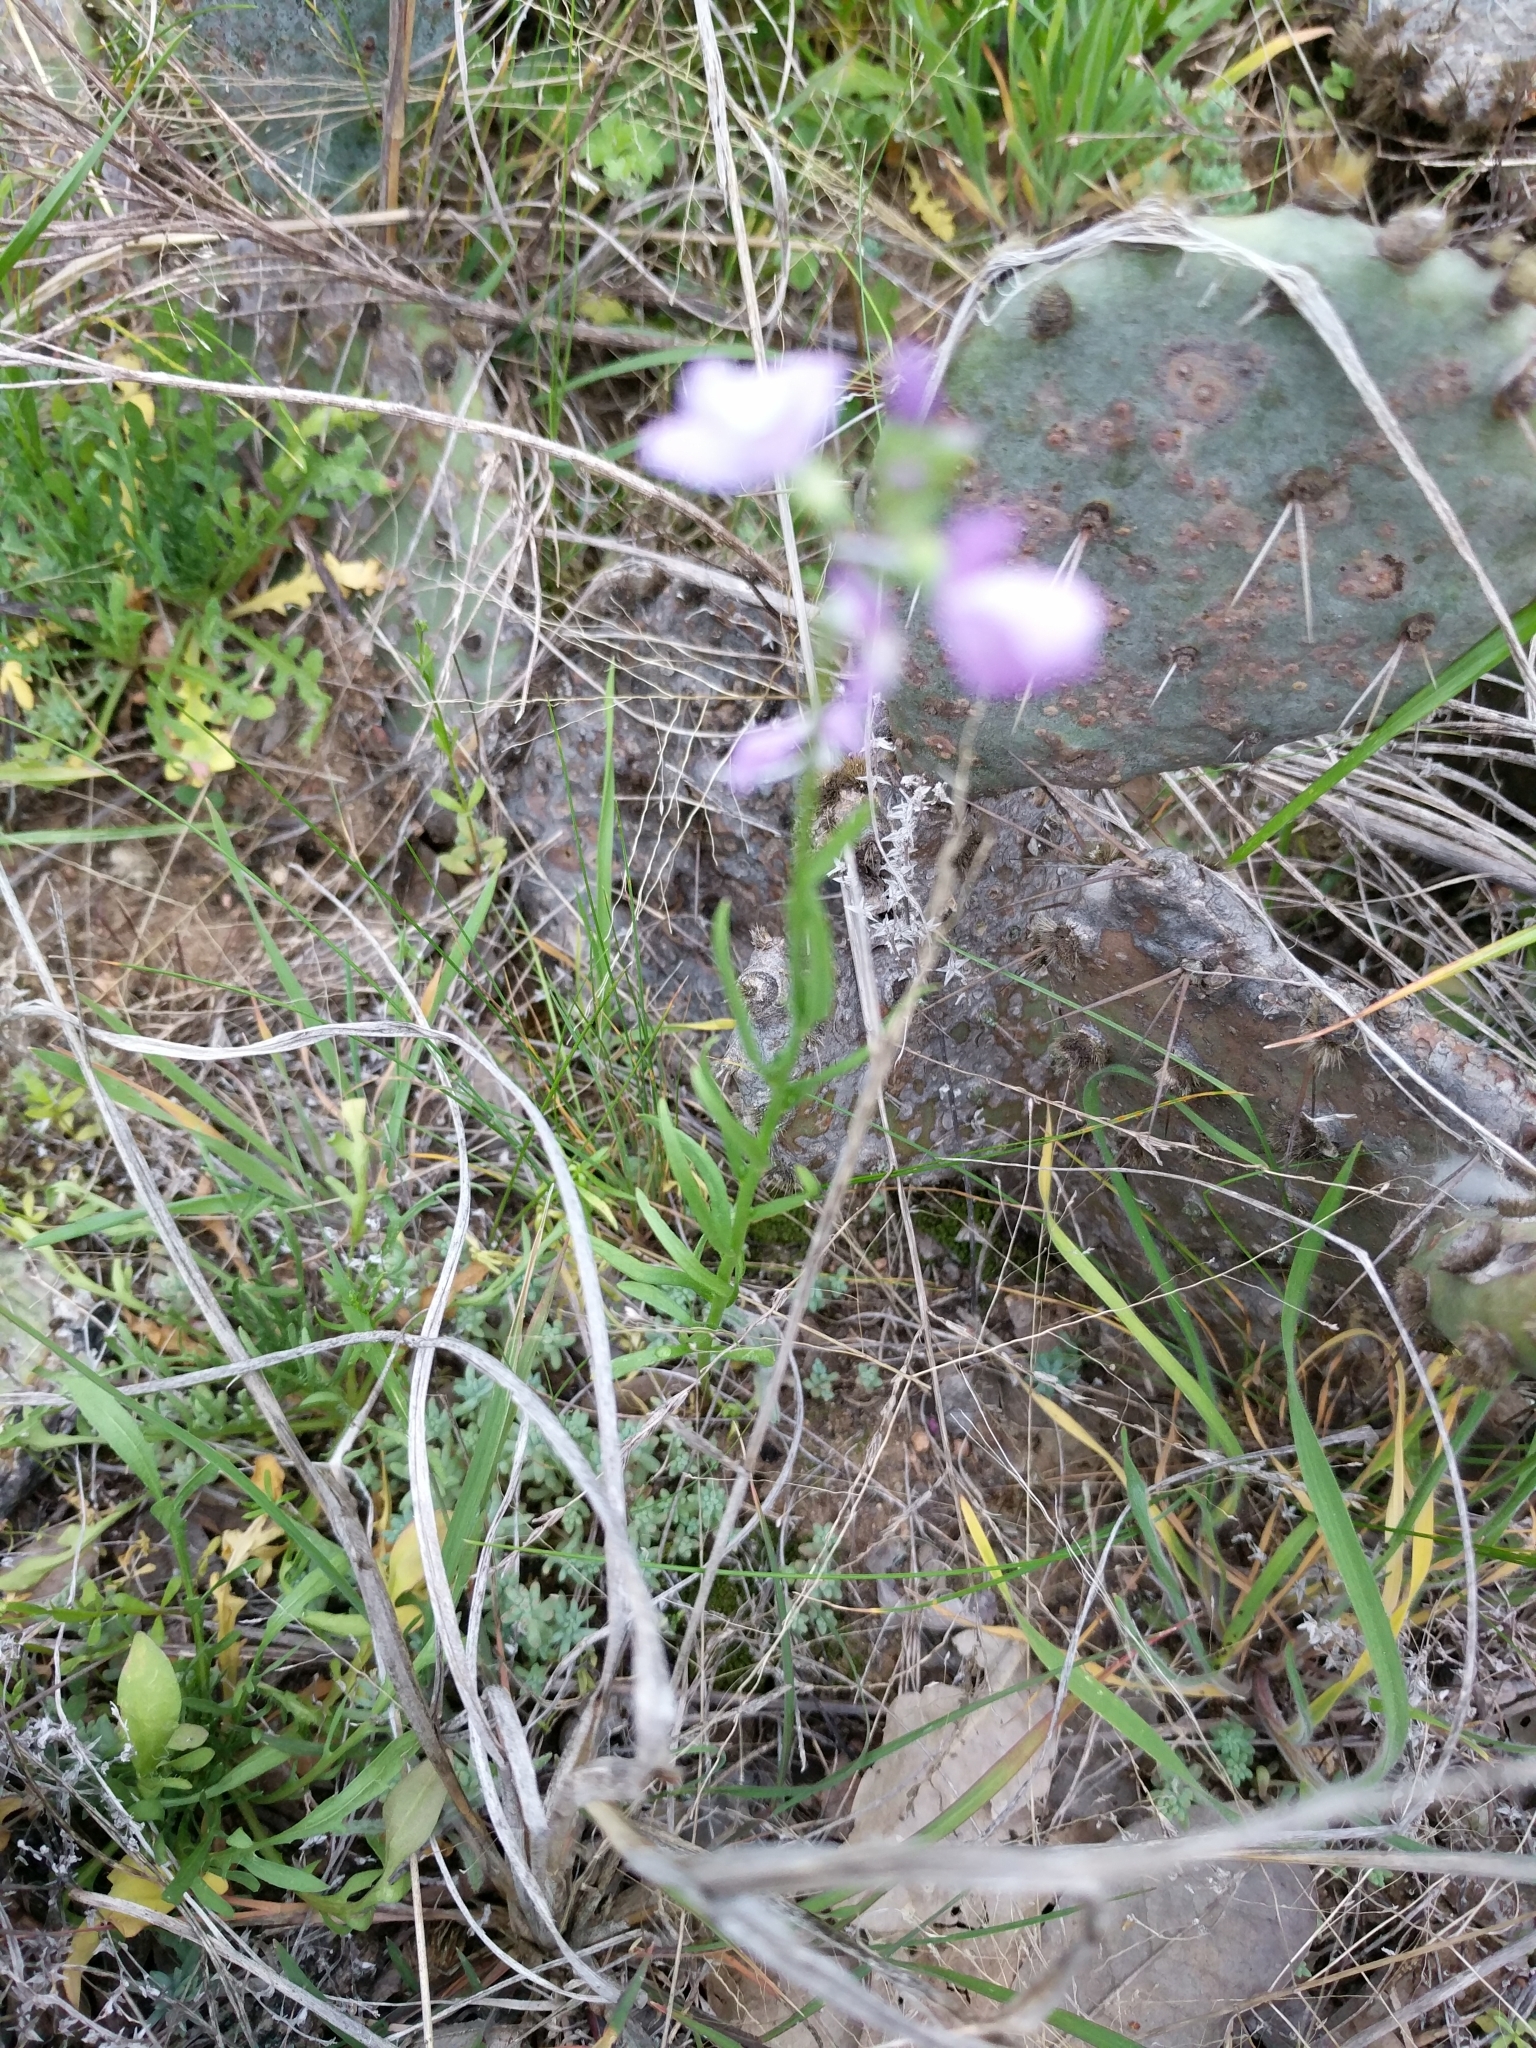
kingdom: Plantae
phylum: Tracheophyta
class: Magnoliopsida
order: Lamiales
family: Plantaginaceae
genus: Nuttallanthus
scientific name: Nuttallanthus texanus
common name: Texas toadflax
